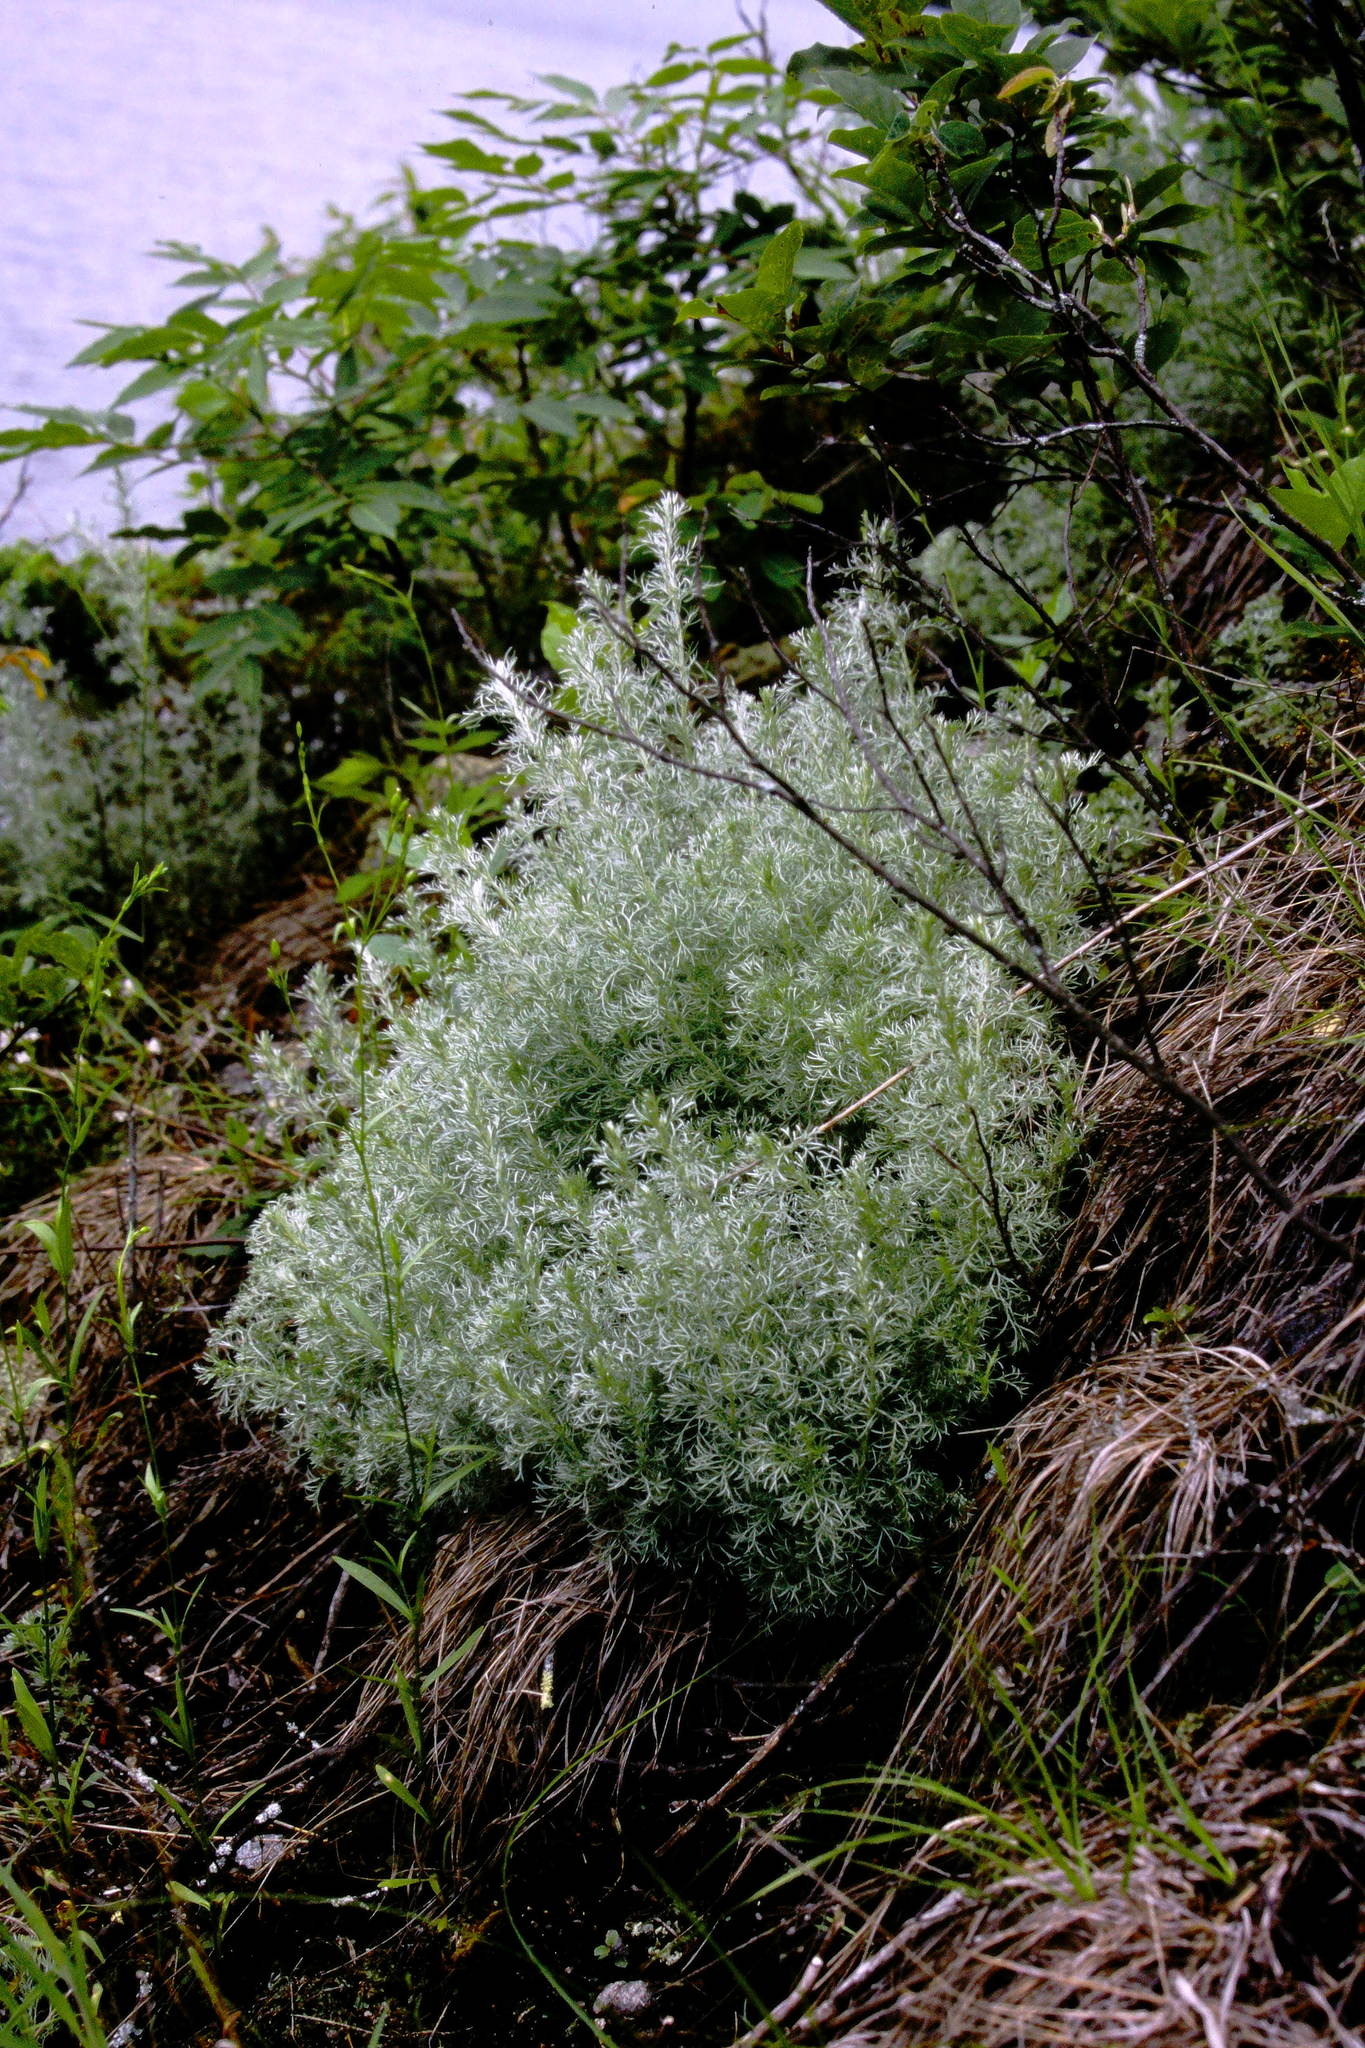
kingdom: Plantae
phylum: Tracheophyta
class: Magnoliopsida
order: Asterales
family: Asteraceae
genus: Artemisia
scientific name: Artemisia frigida
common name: Prairie sagewort
